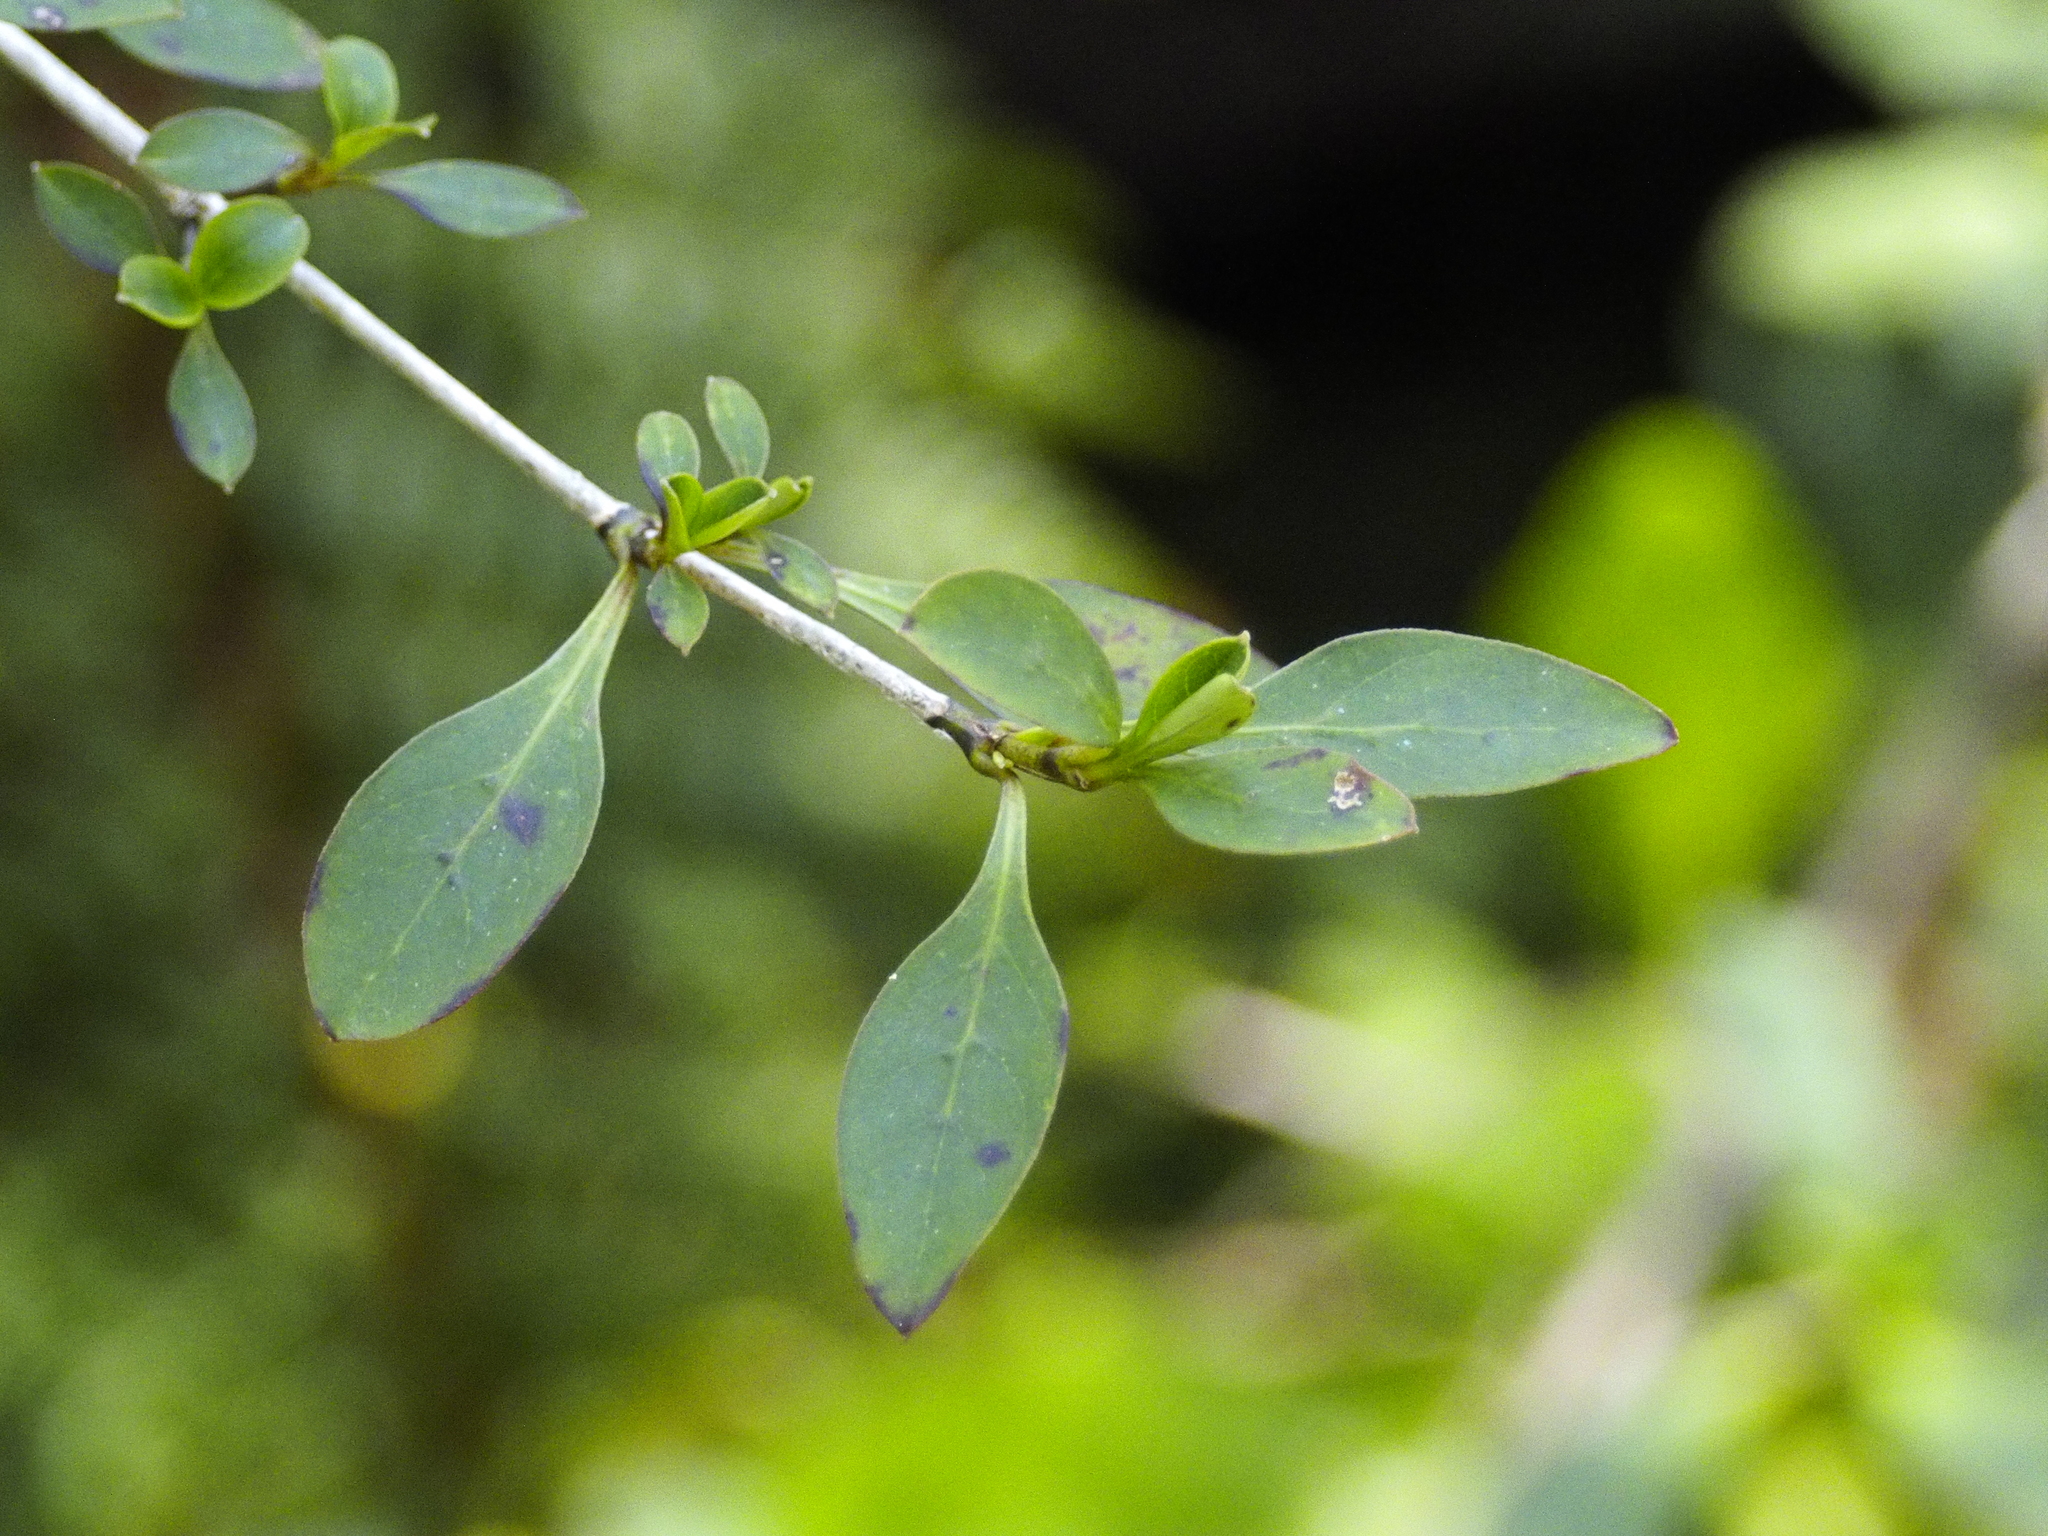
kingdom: Plantae
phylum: Tracheophyta
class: Magnoliopsida
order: Gentianales
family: Rubiaceae
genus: Coprosma
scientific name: Coprosma foetidissima
